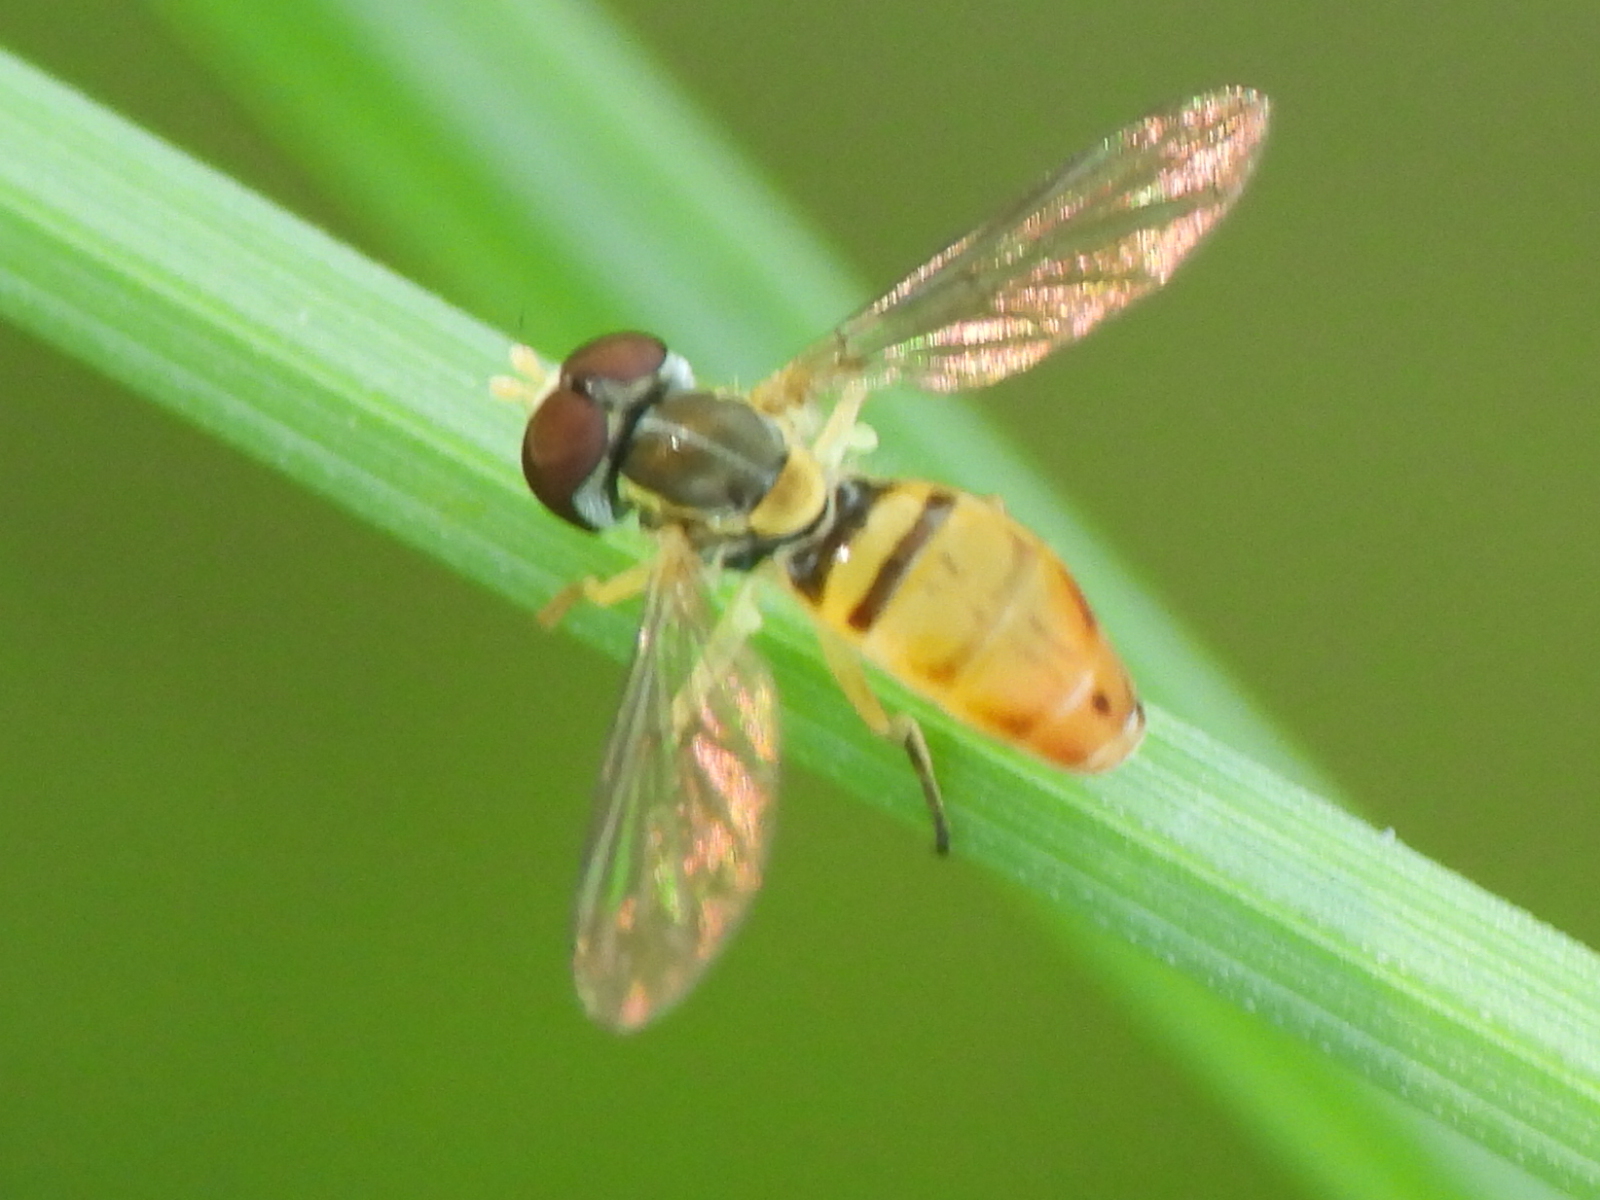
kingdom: Animalia
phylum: Arthropoda
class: Insecta
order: Diptera
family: Syrphidae
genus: Toxomerus
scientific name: Toxomerus marginatus
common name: Syrphid fly
